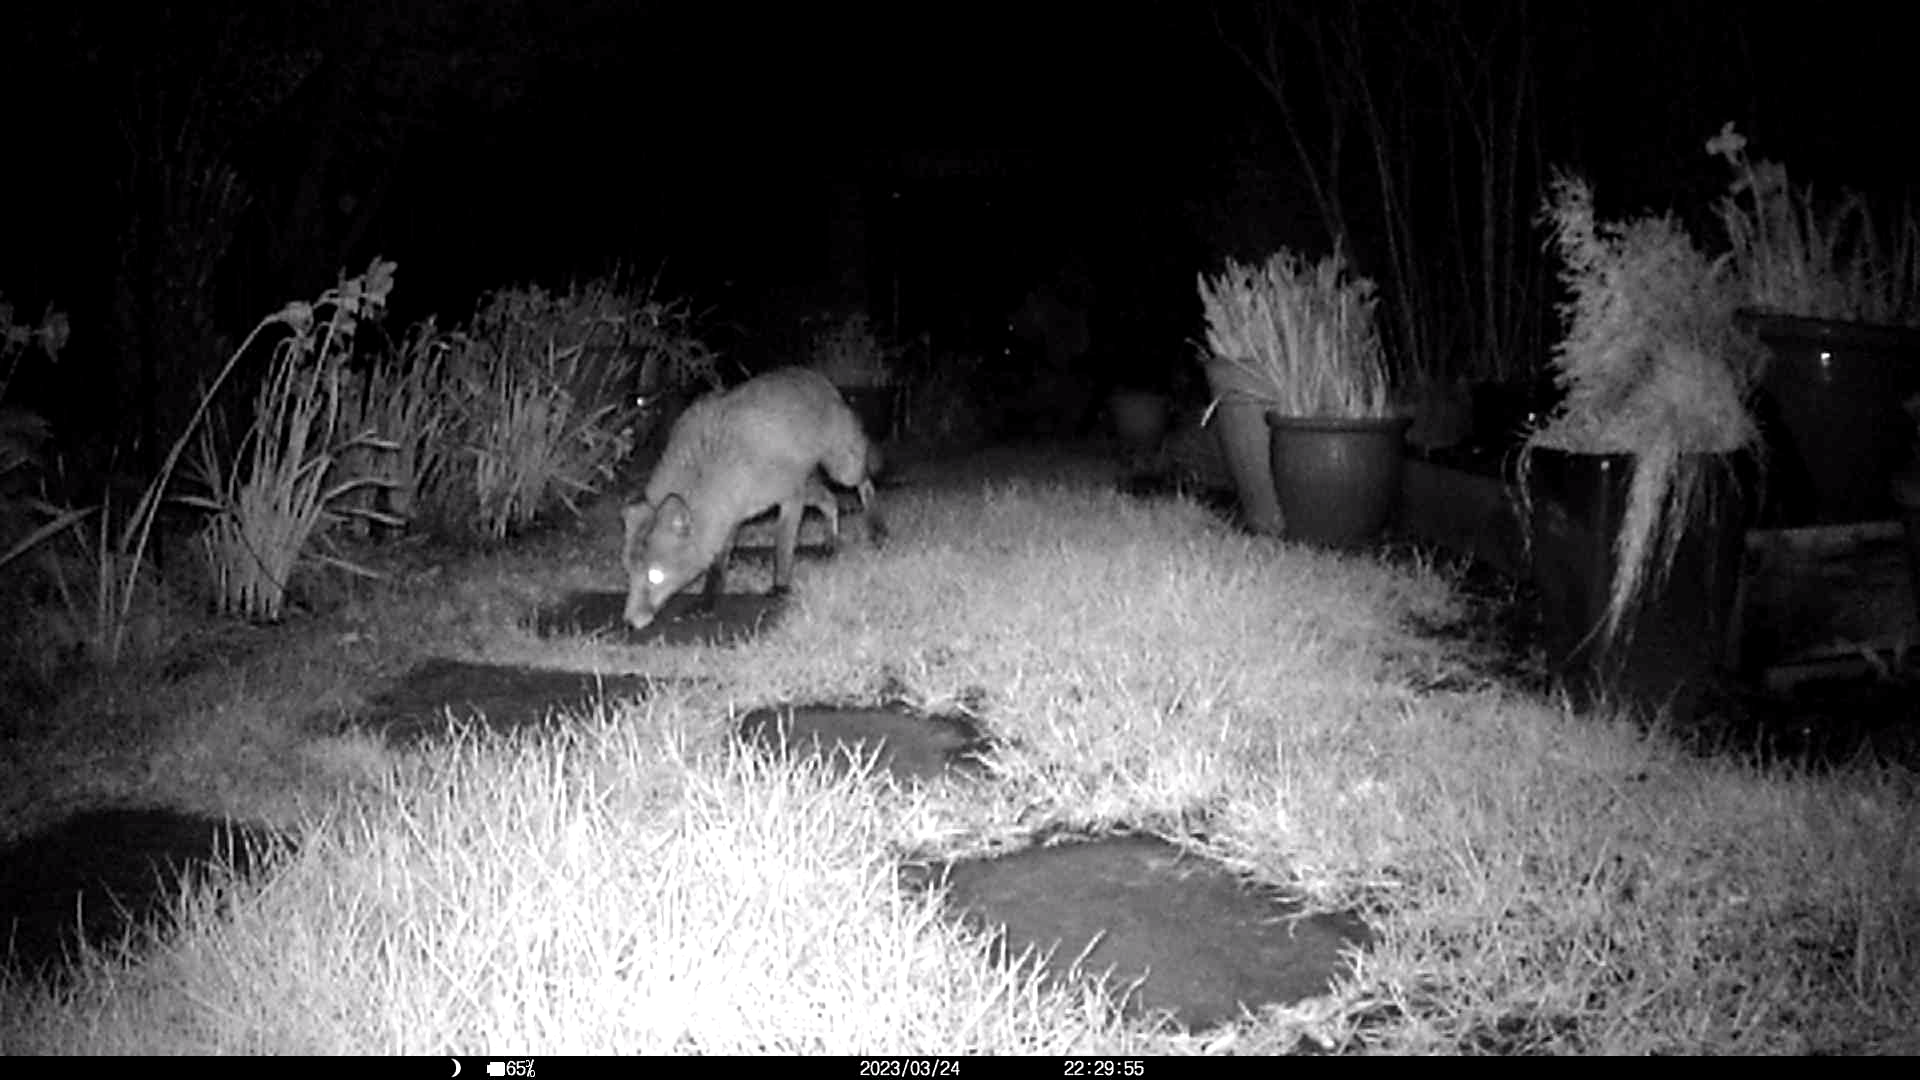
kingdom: Animalia
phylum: Chordata
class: Mammalia
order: Carnivora
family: Canidae
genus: Vulpes
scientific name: Vulpes vulpes
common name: Red fox
